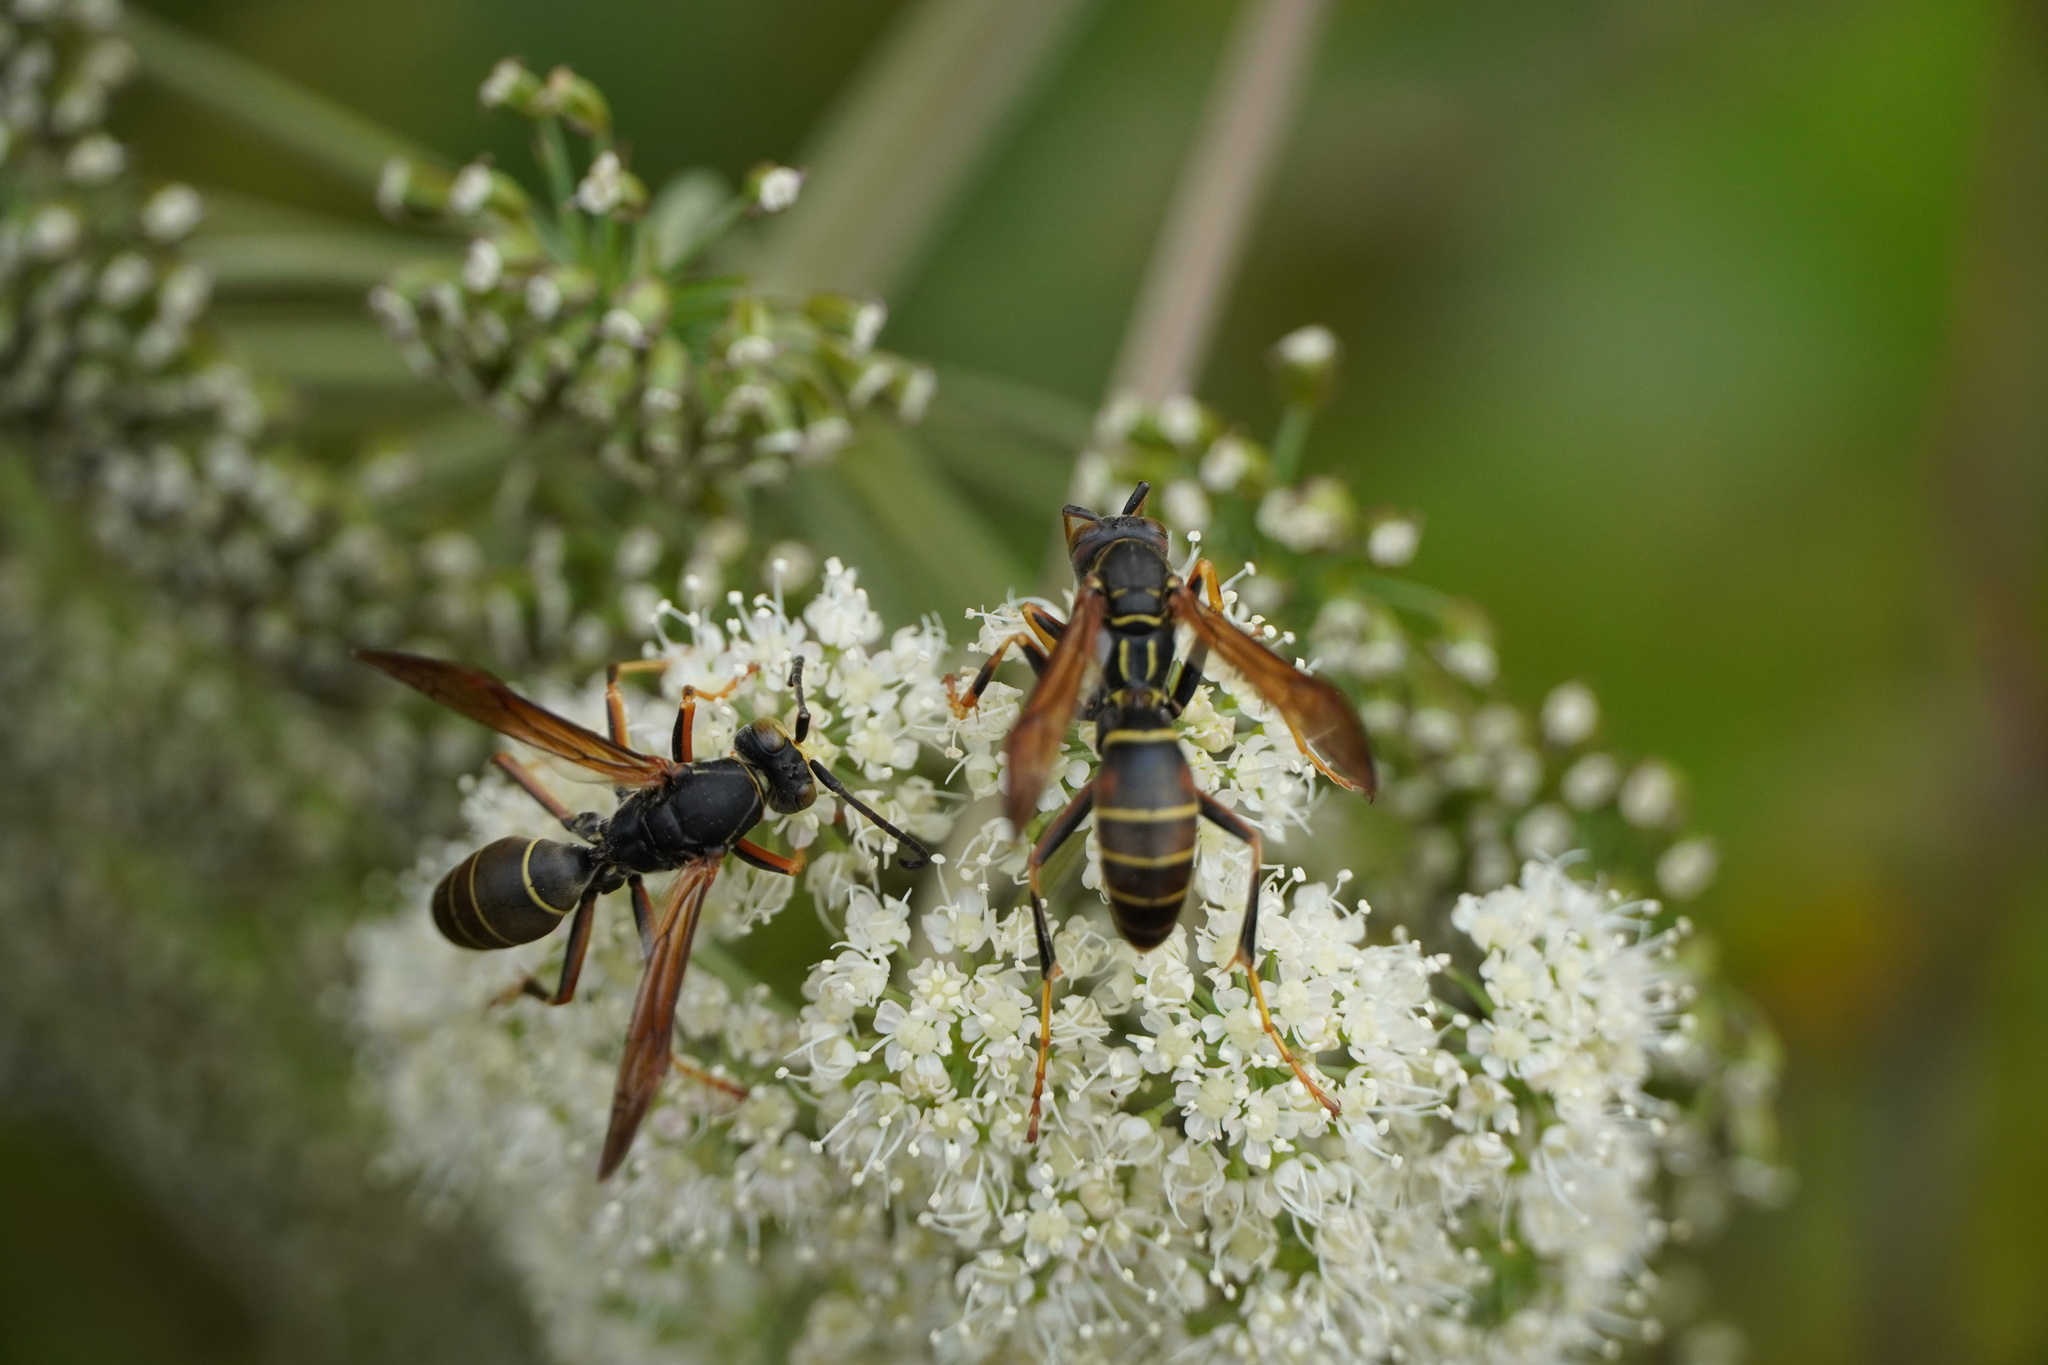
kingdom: Animalia
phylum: Arthropoda
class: Insecta
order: Hymenoptera
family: Eumenidae
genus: Polistes
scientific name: Polistes fuscatus
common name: Dark paper wasp
